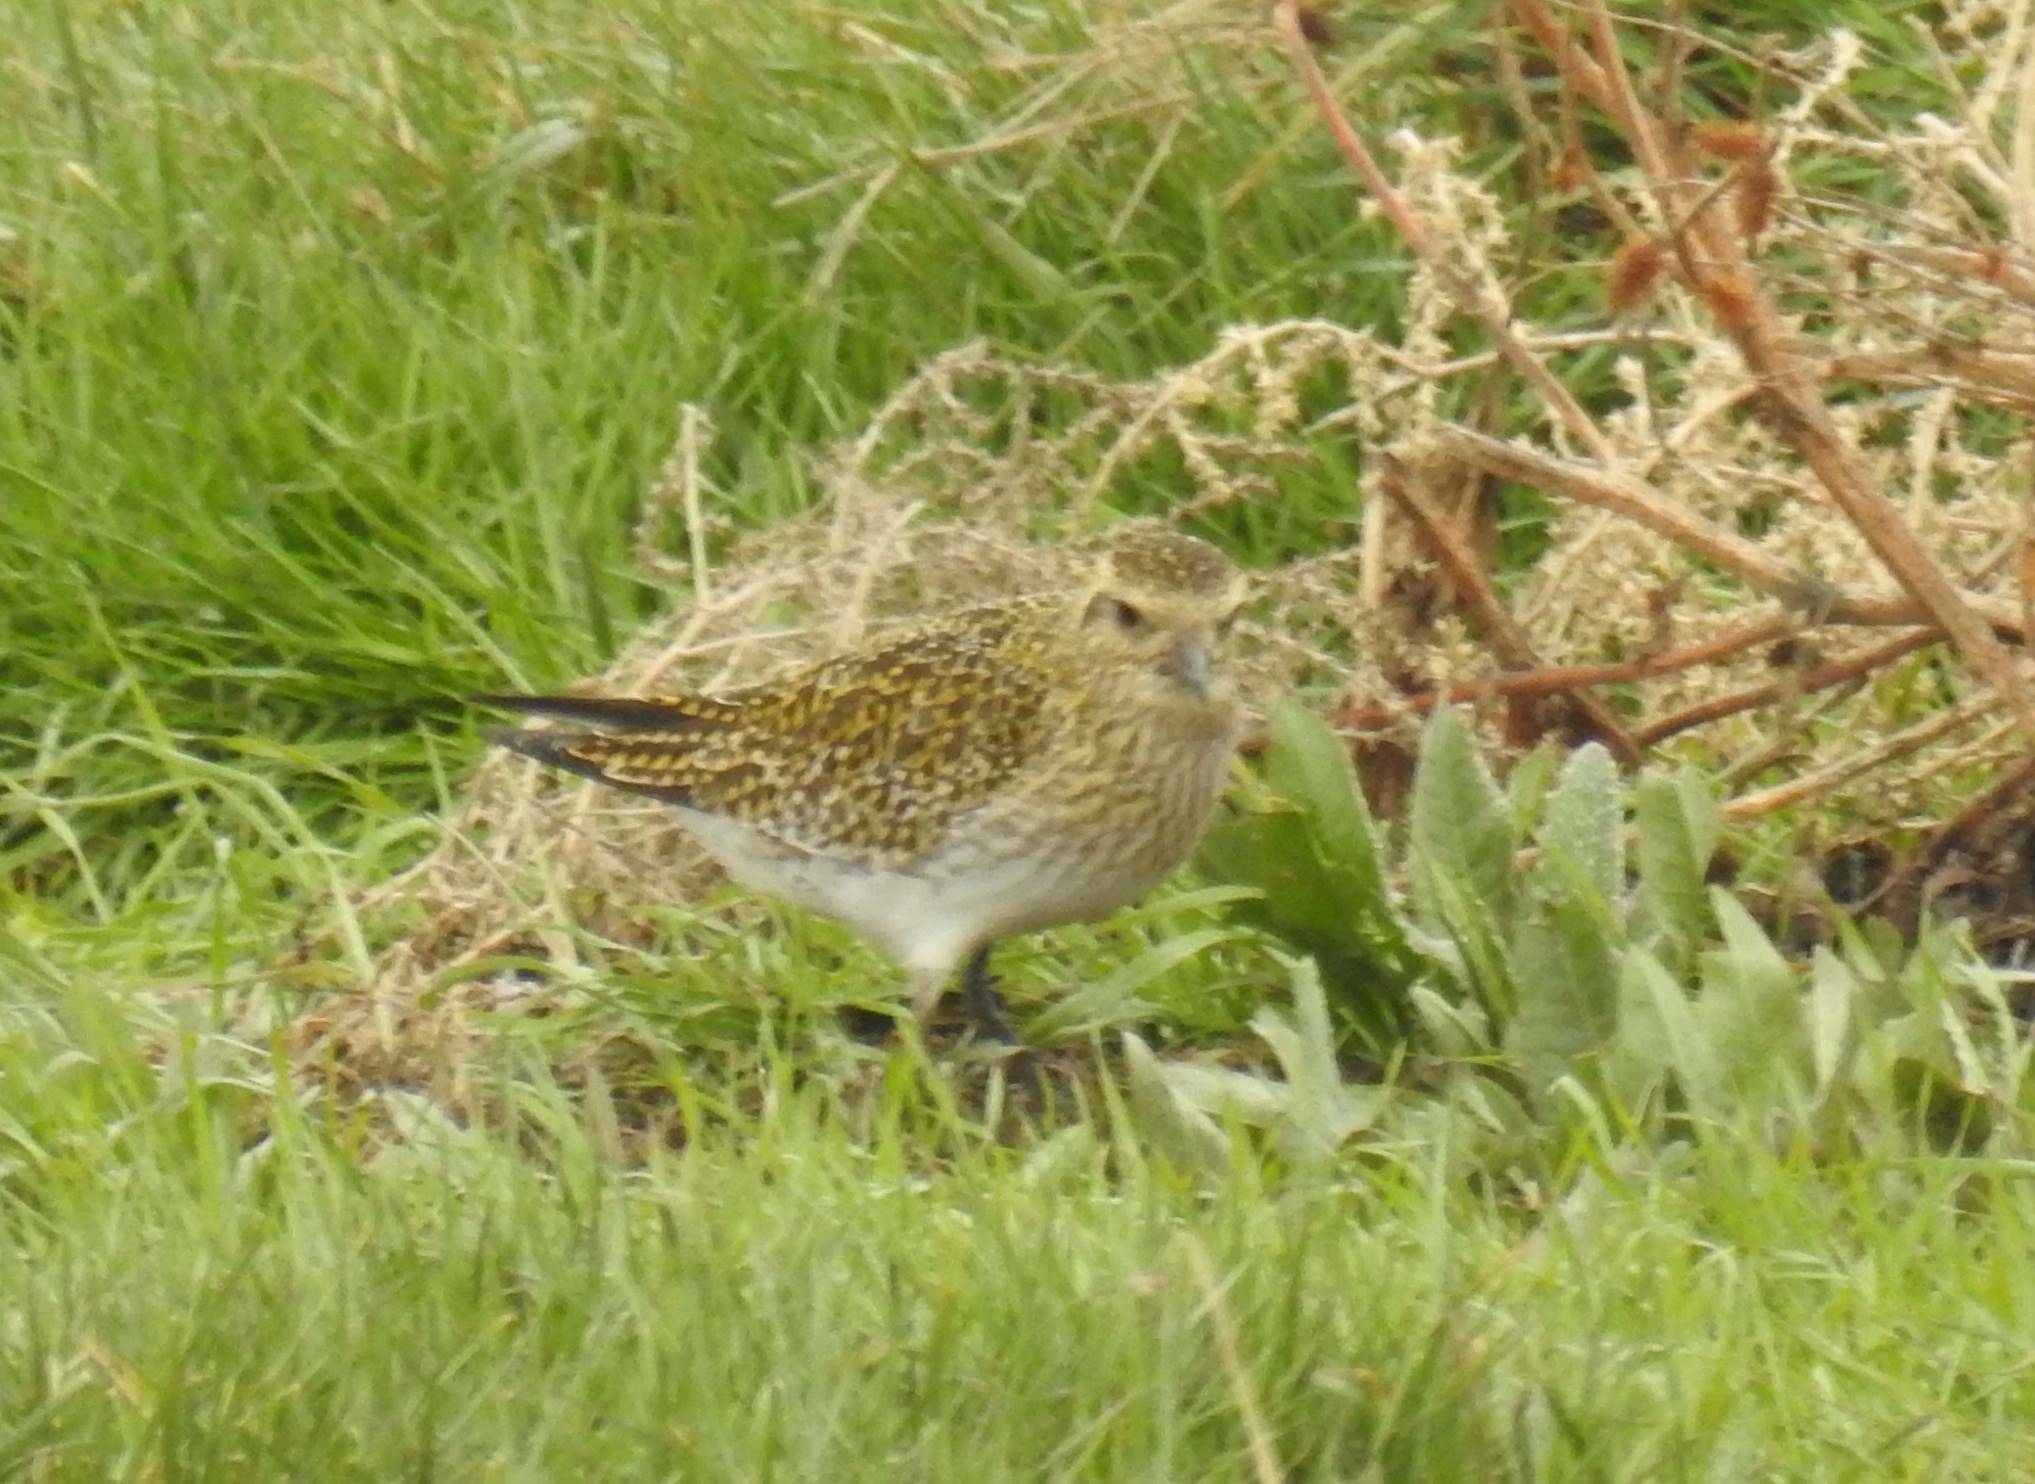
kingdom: Animalia
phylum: Chordata
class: Aves
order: Charadriiformes
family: Charadriidae
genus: Pluvialis
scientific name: Pluvialis apricaria
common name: European golden plover
